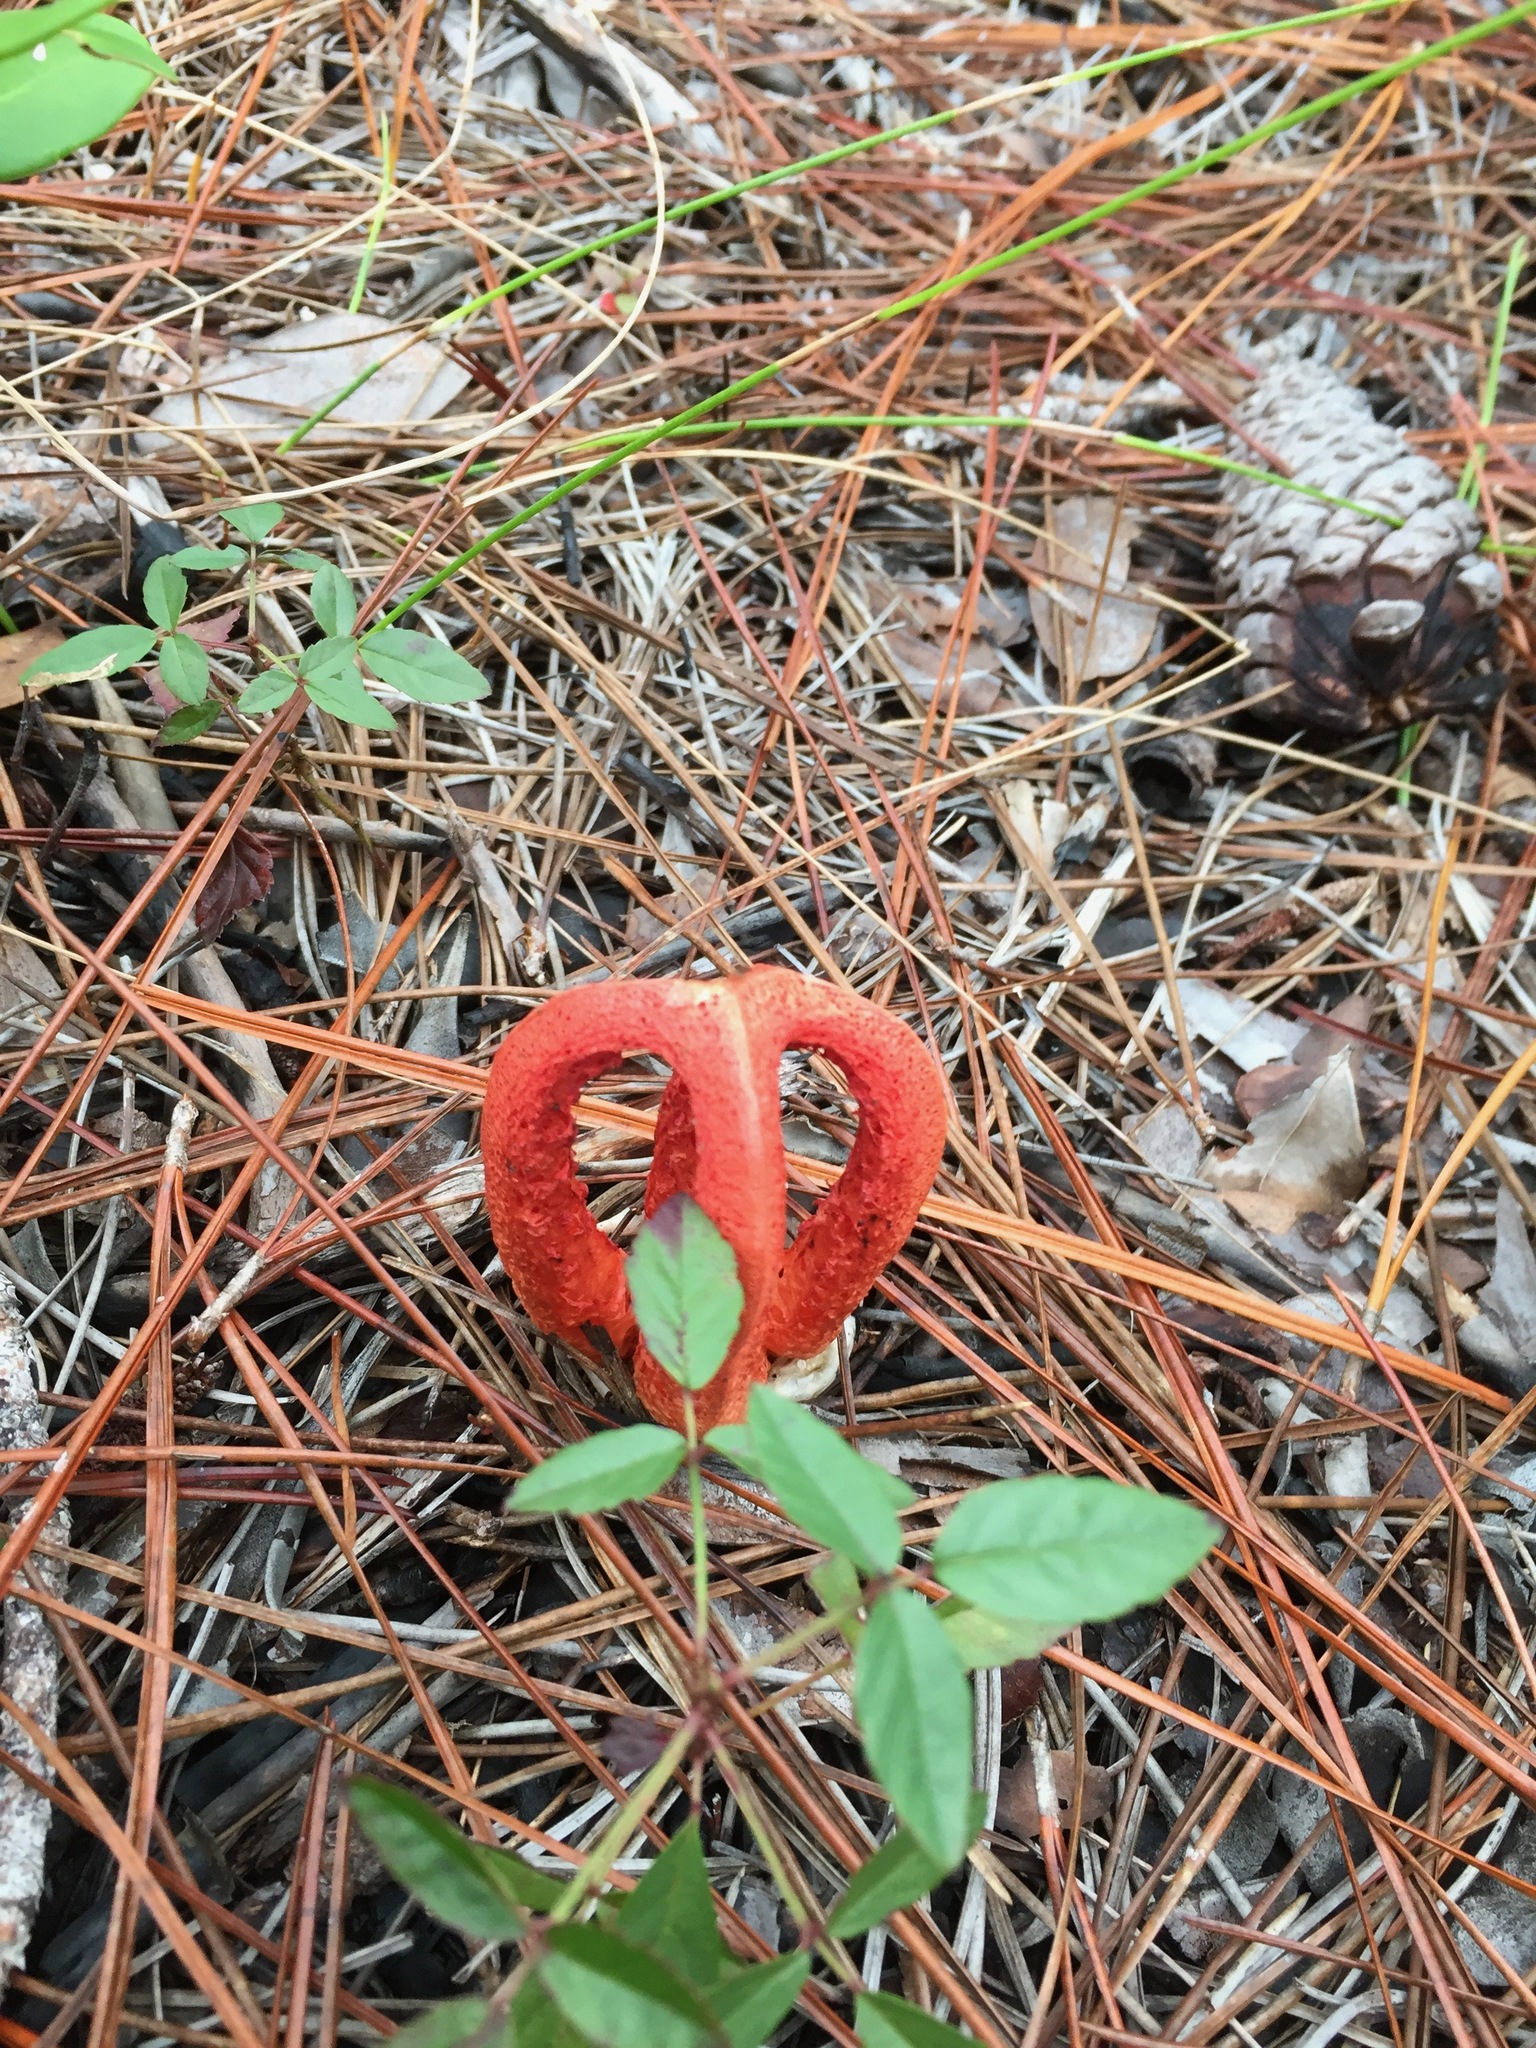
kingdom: Fungi
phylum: Basidiomycota
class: Agaricomycetes
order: Phallales
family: Phallaceae
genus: Clathrus
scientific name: Clathrus columnatus
